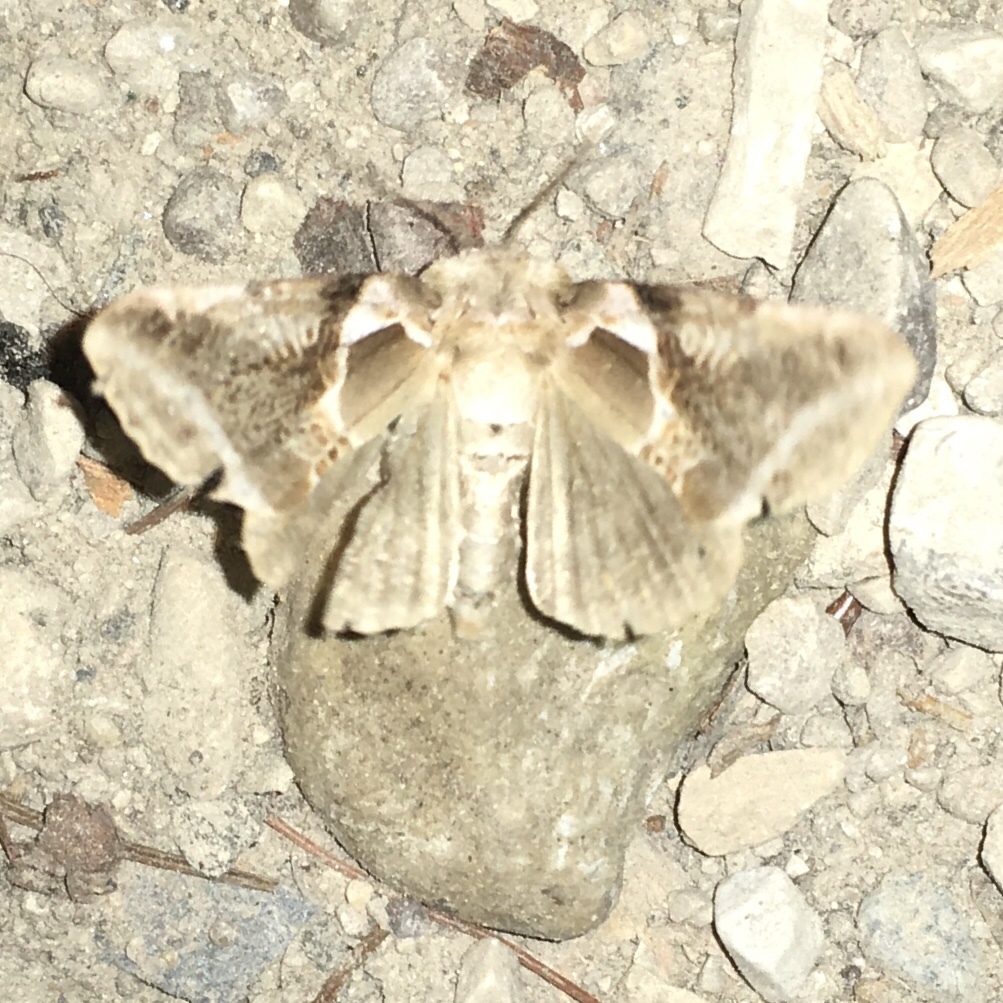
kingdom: Animalia
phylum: Arthropoda
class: Insecta
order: Lepidoptera
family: Drepanidae
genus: Habrosyne
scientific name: Habrosyne scripta
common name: Lettered habrosyne moth
